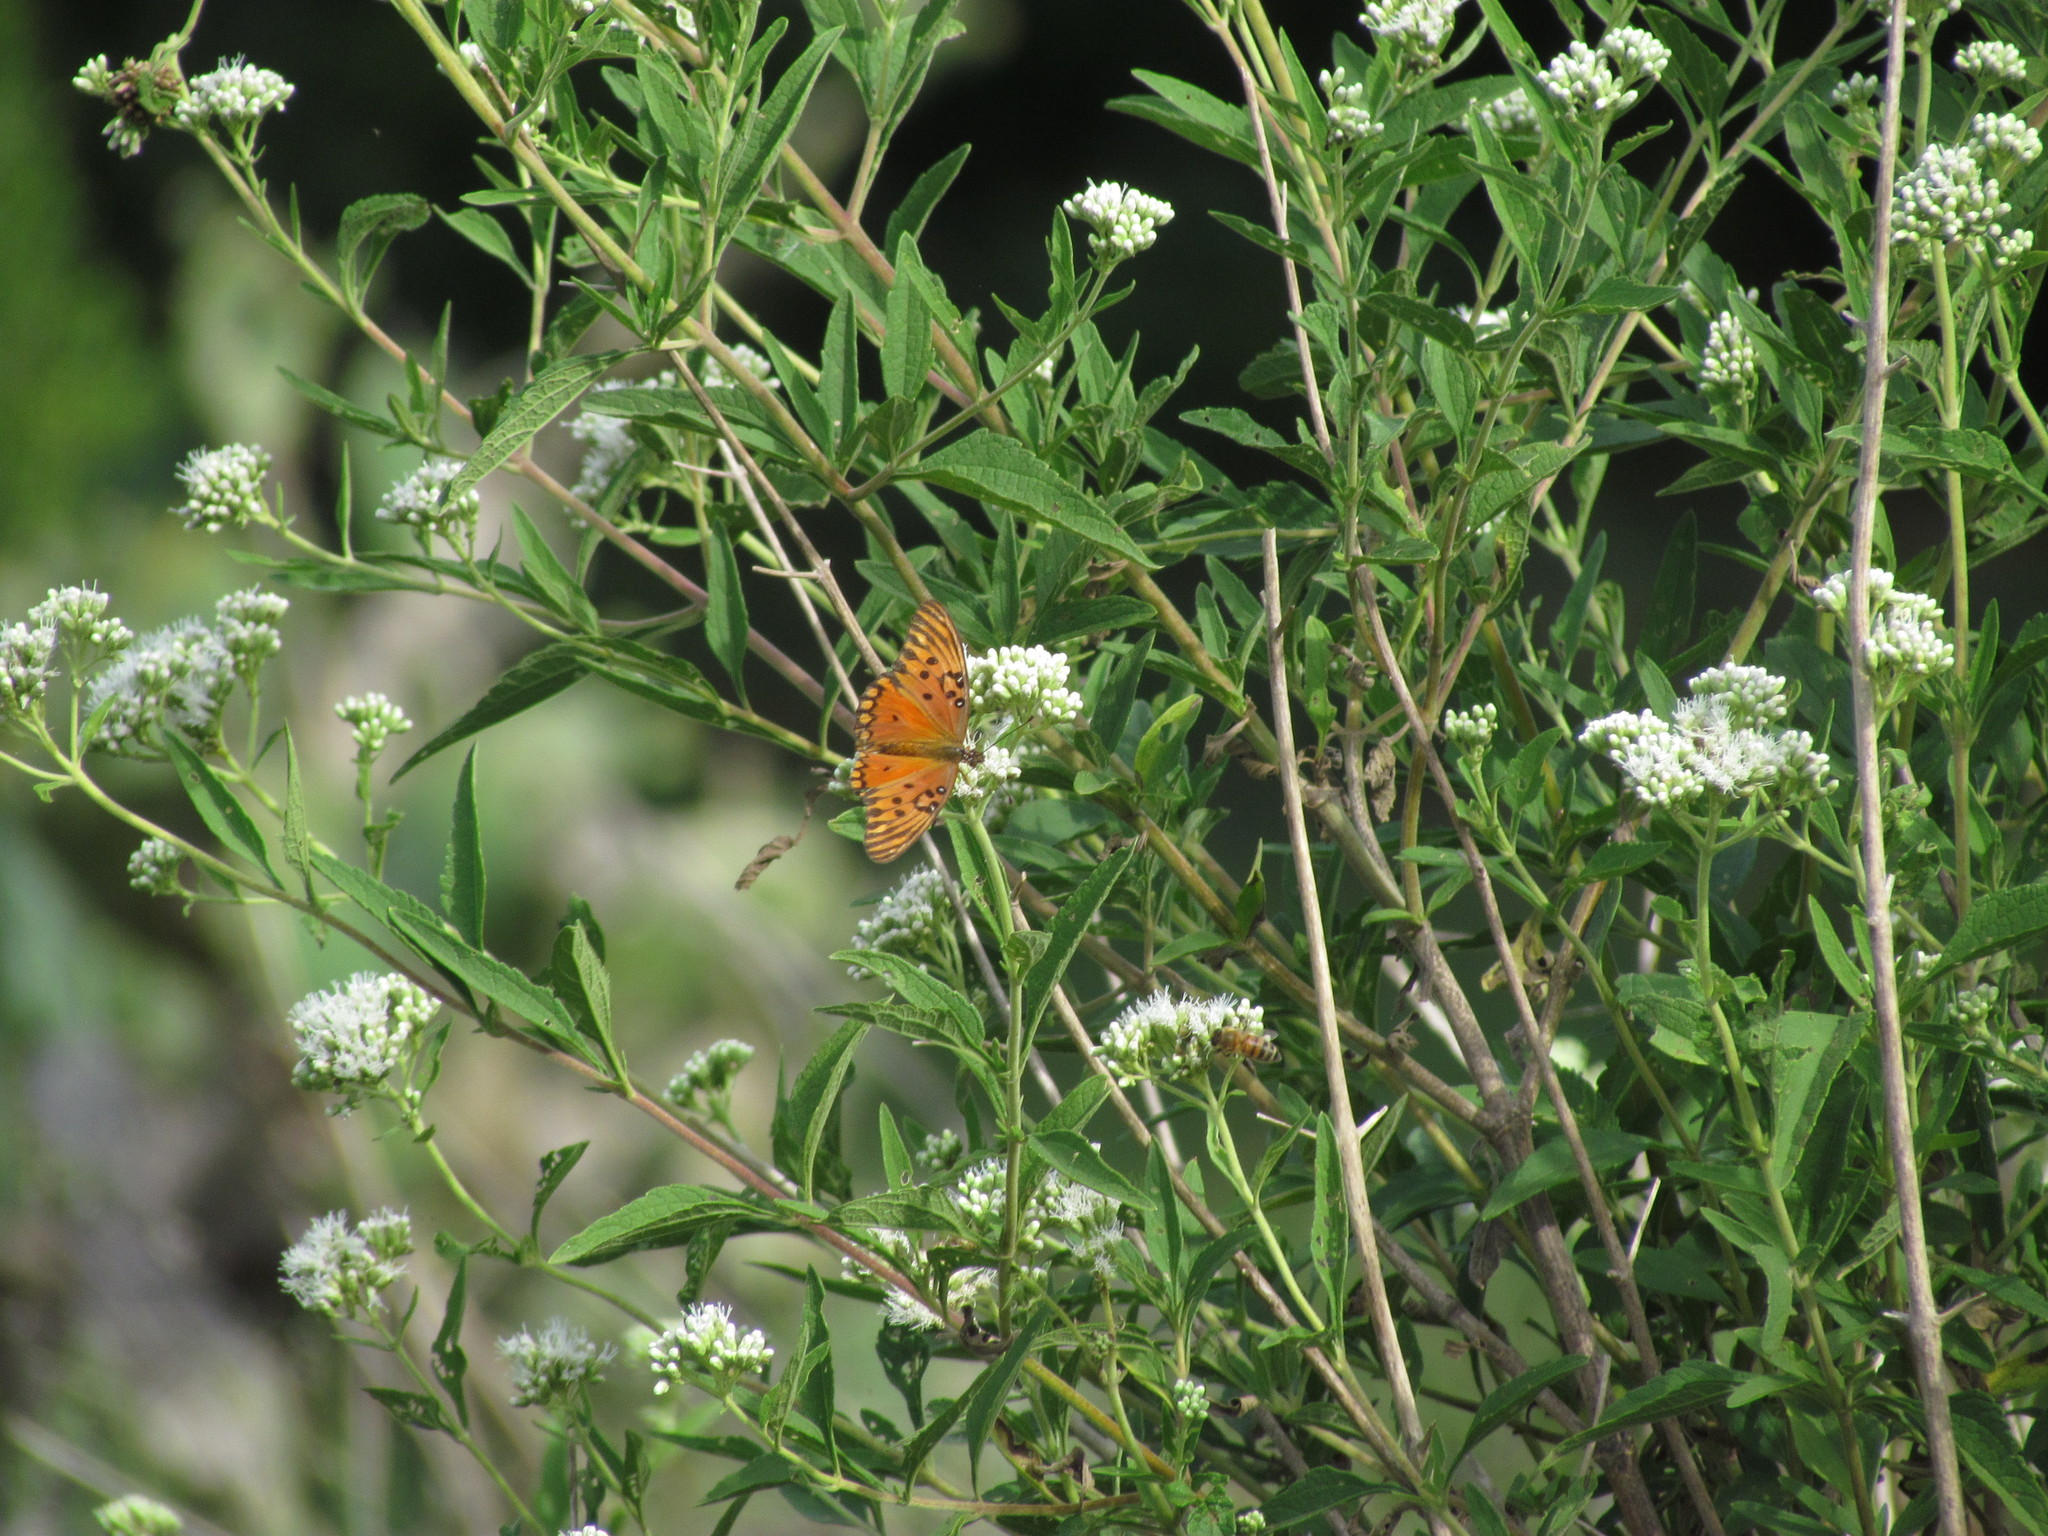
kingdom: Animalia
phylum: Arthropoda
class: Insecta
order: Lepidoptera
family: Nymphalidae
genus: Dione
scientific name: Dione vanillae
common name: Gulf fritillary
